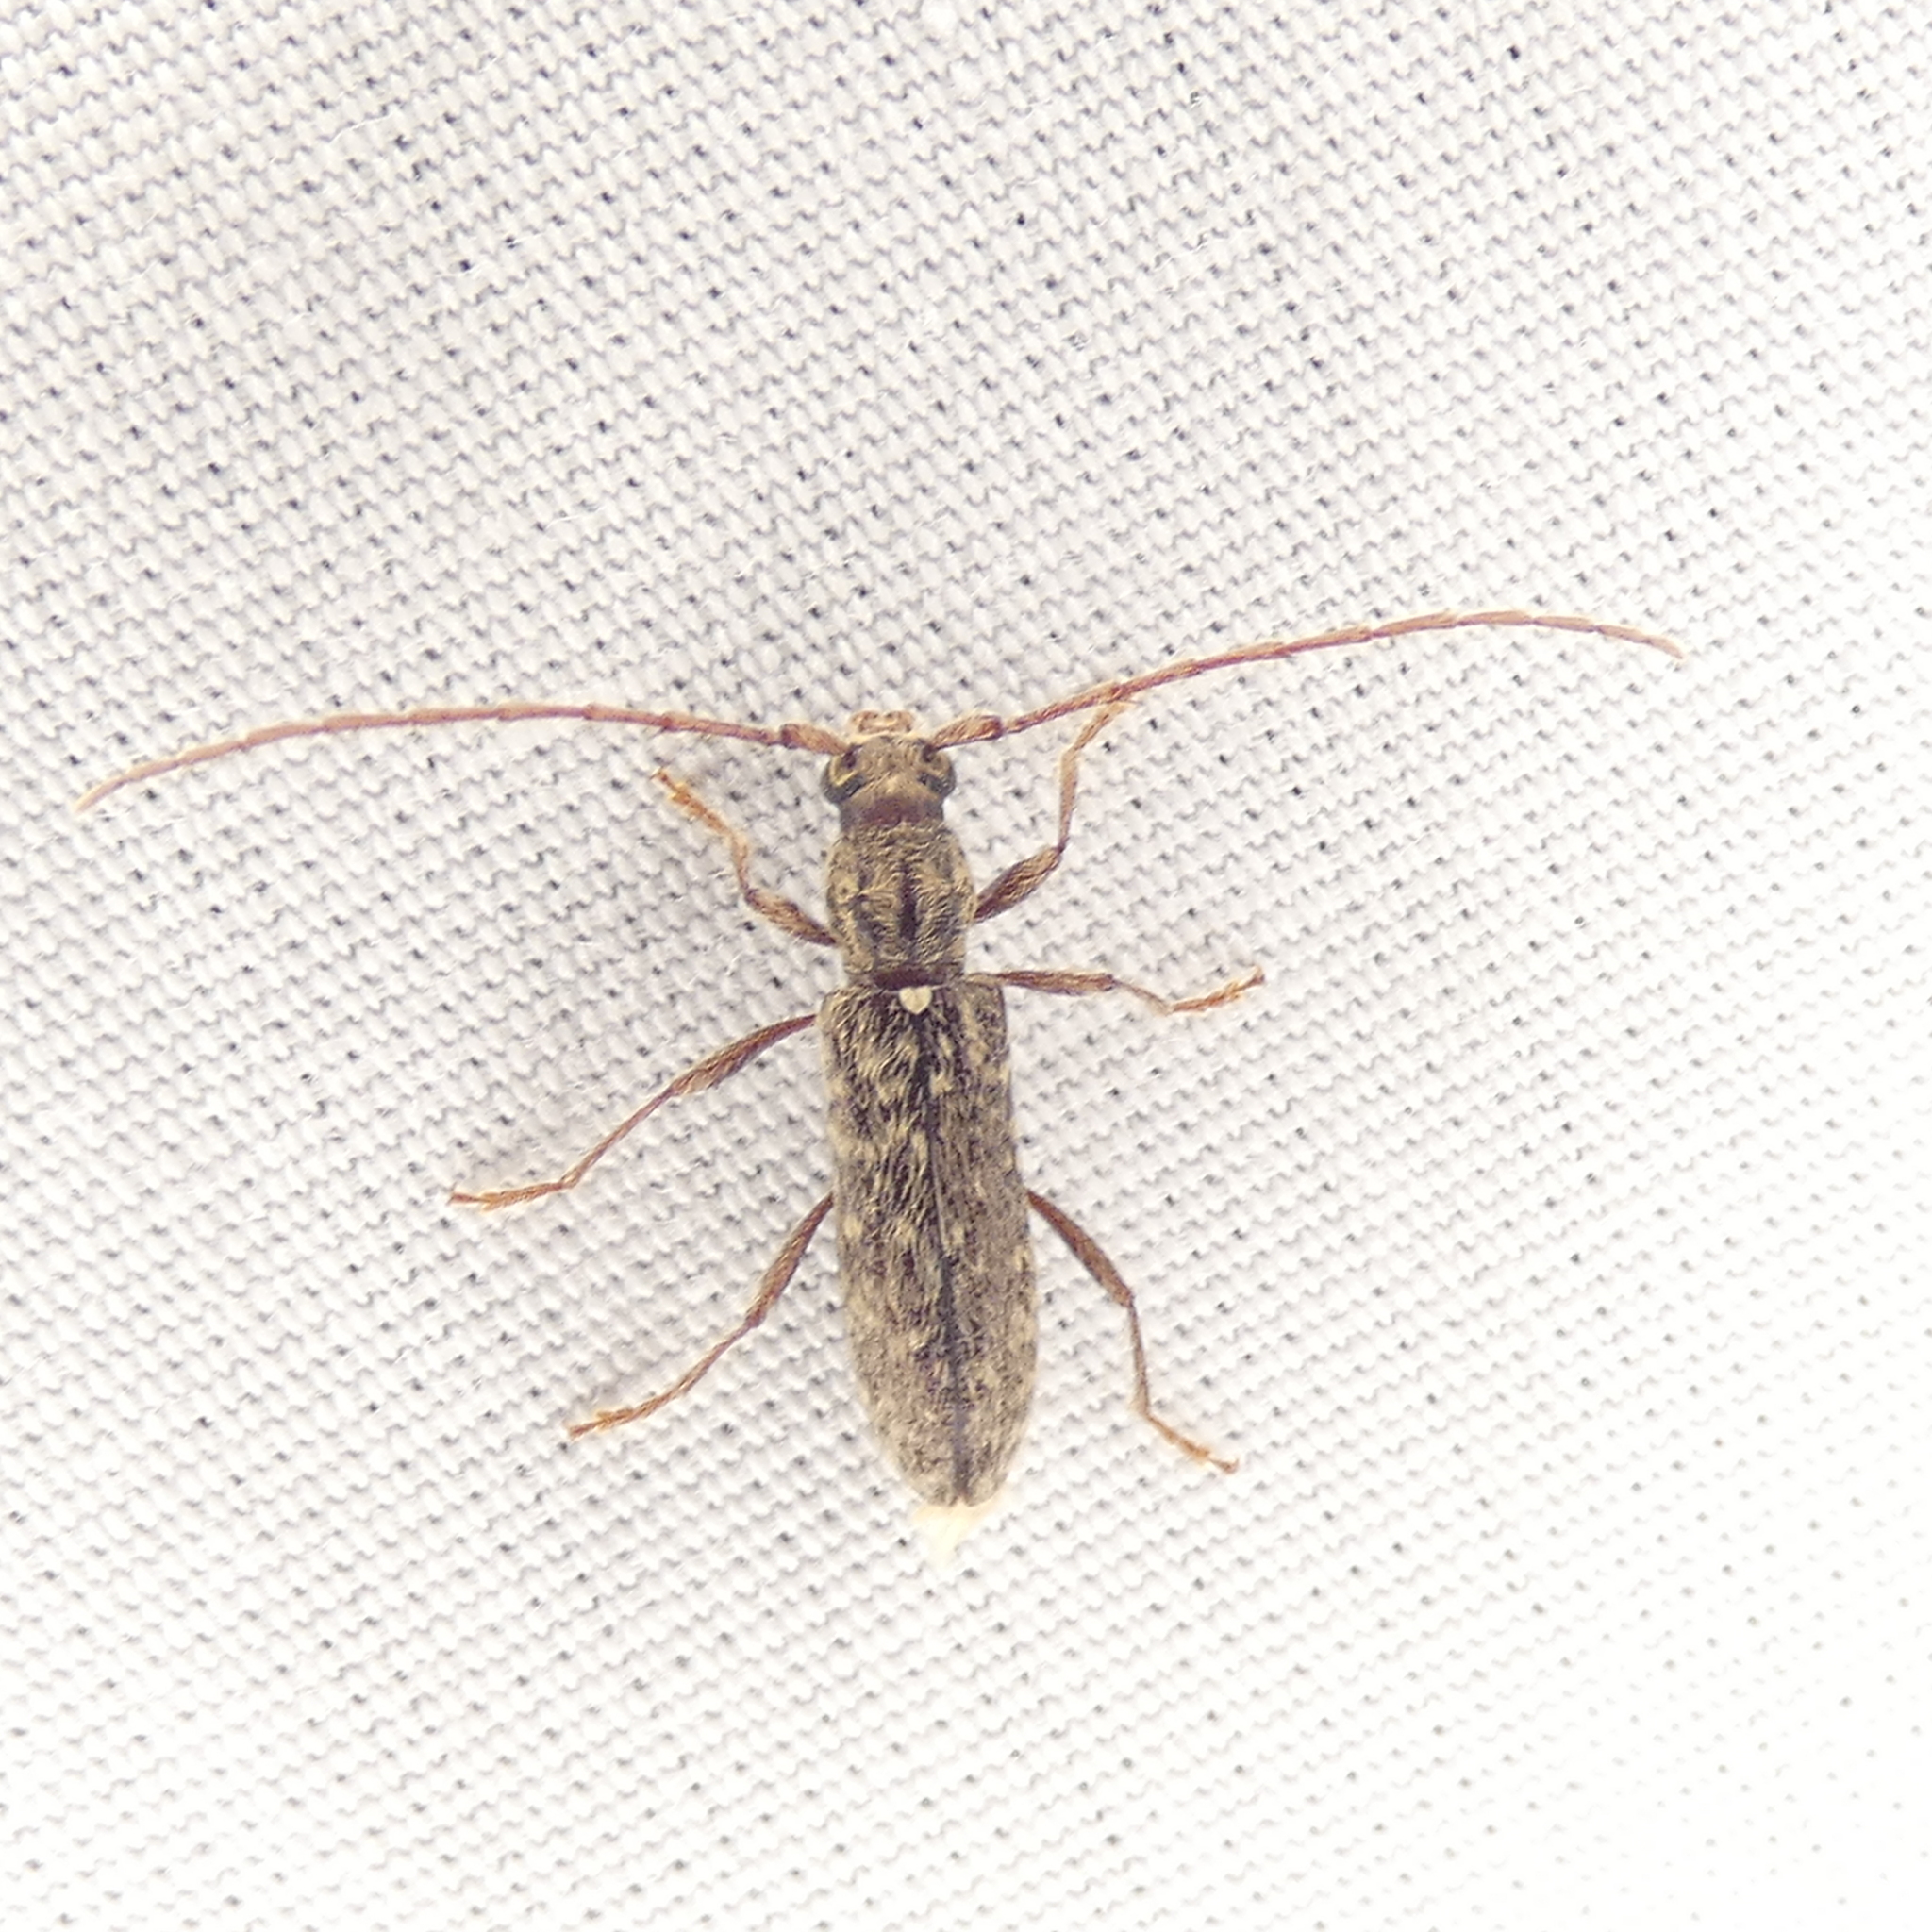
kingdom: Animalia
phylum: Arthropoda
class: Insecta
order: Coleoptera
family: Cerambycidae
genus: Anelaphus
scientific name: Anelaphus pumilus
